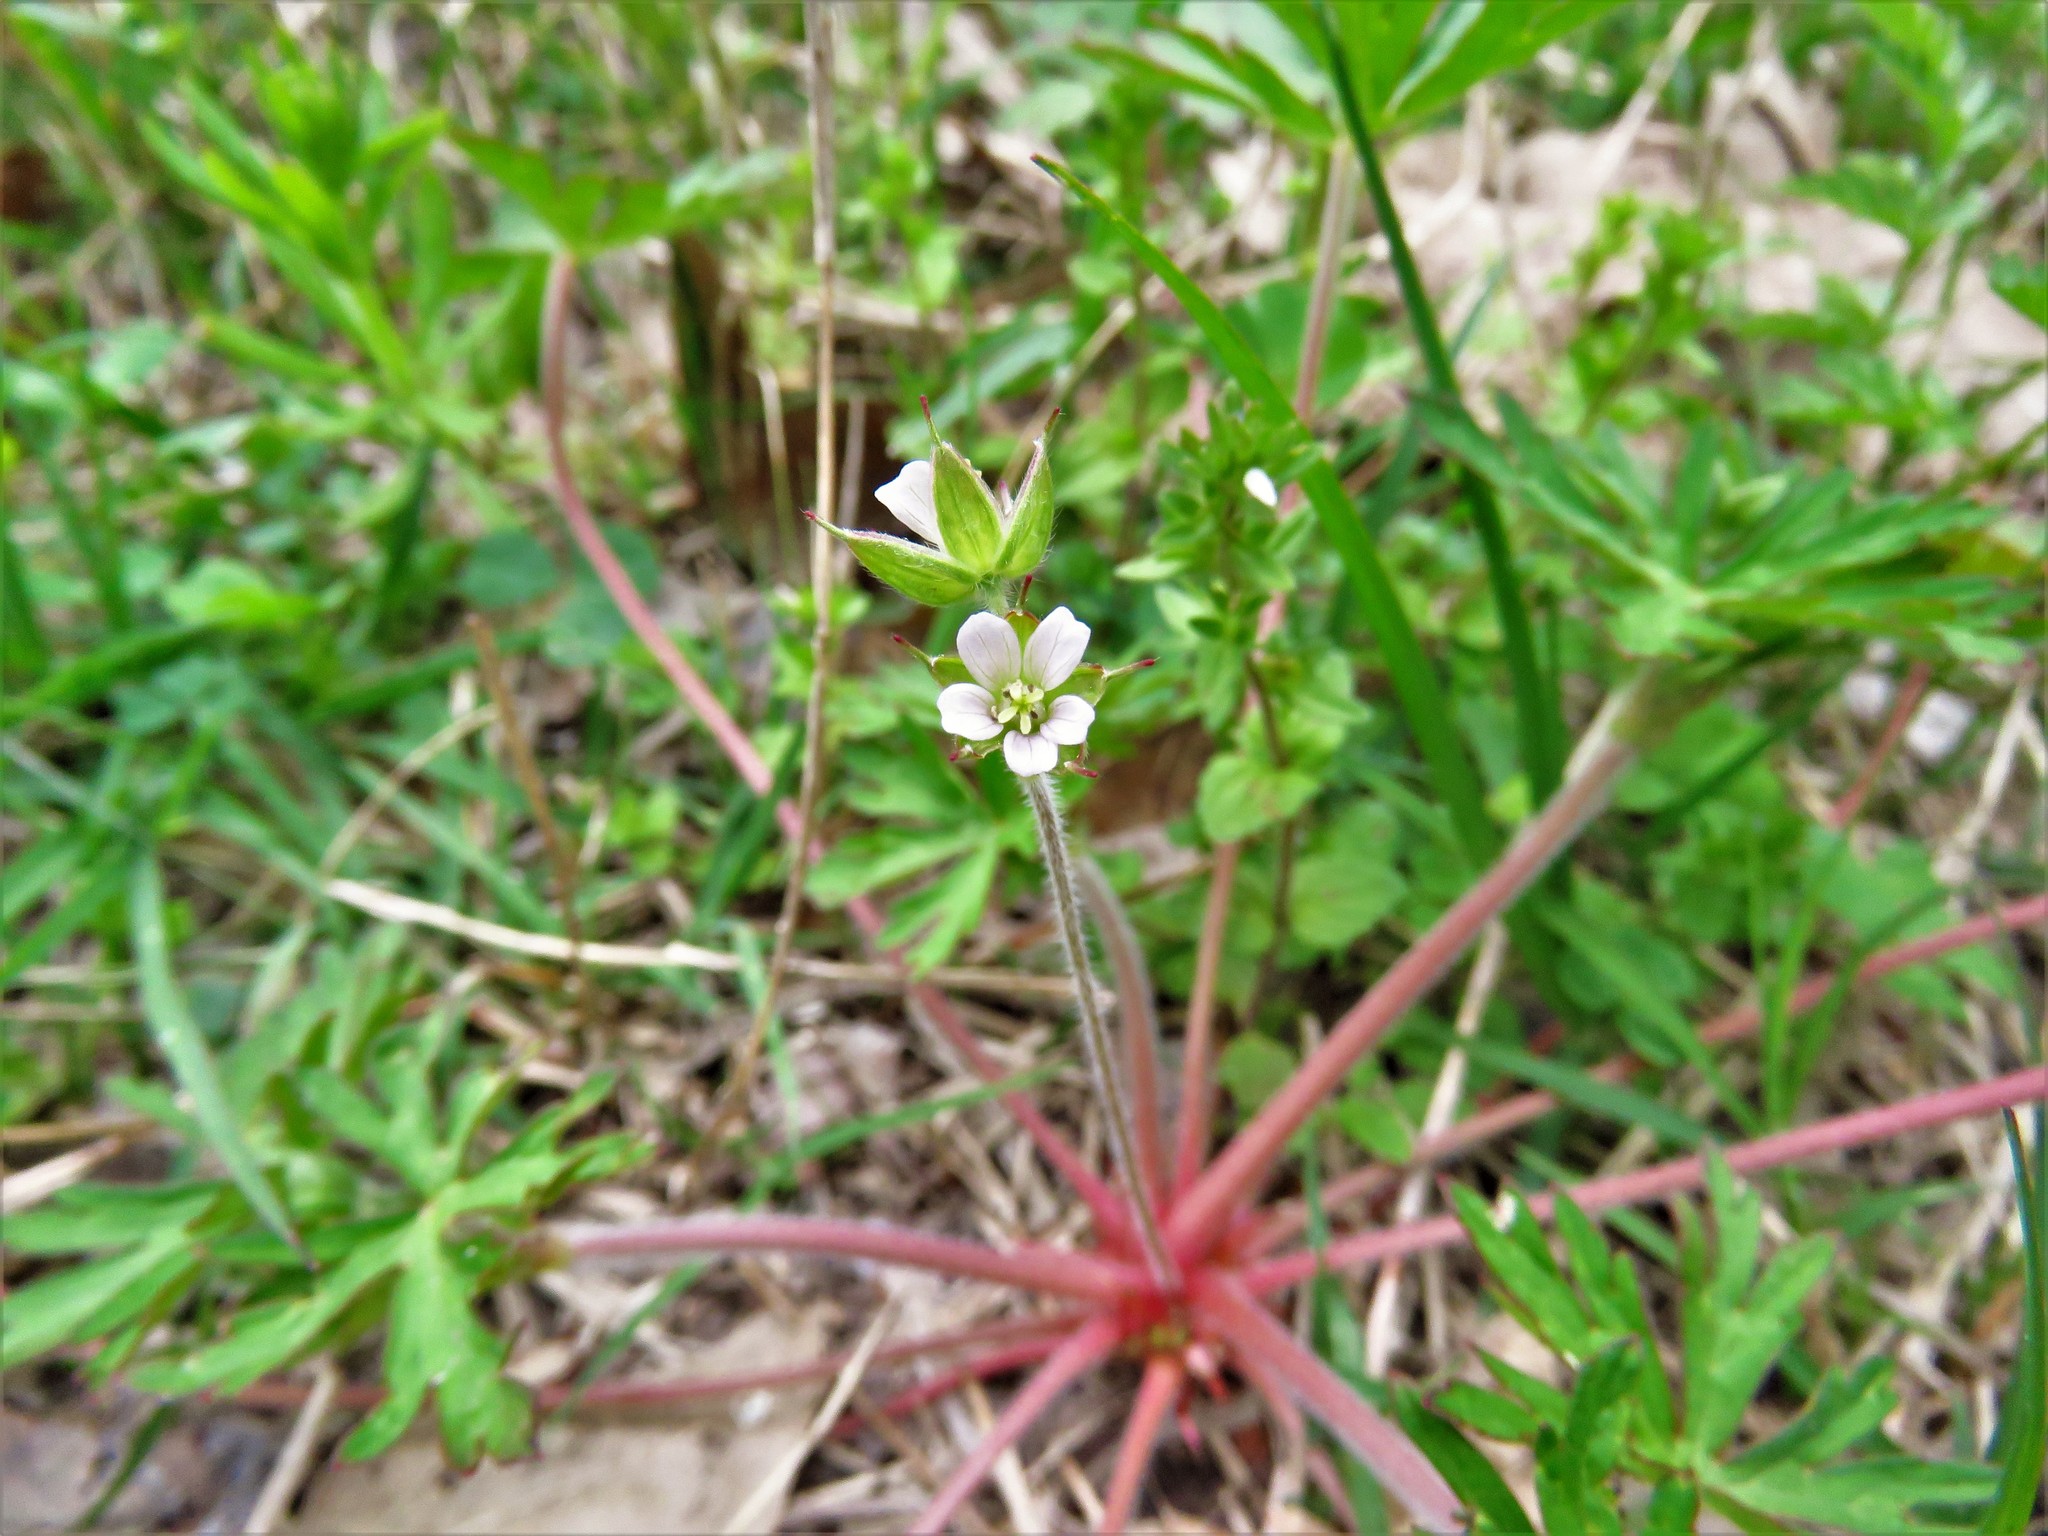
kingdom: Plantae
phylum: Tracheophyta
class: Magnoliopsida
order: Geraniales
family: Geraniaceae
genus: Geranium
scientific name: Geranium carolinianum
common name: Carolina crane's-bill
